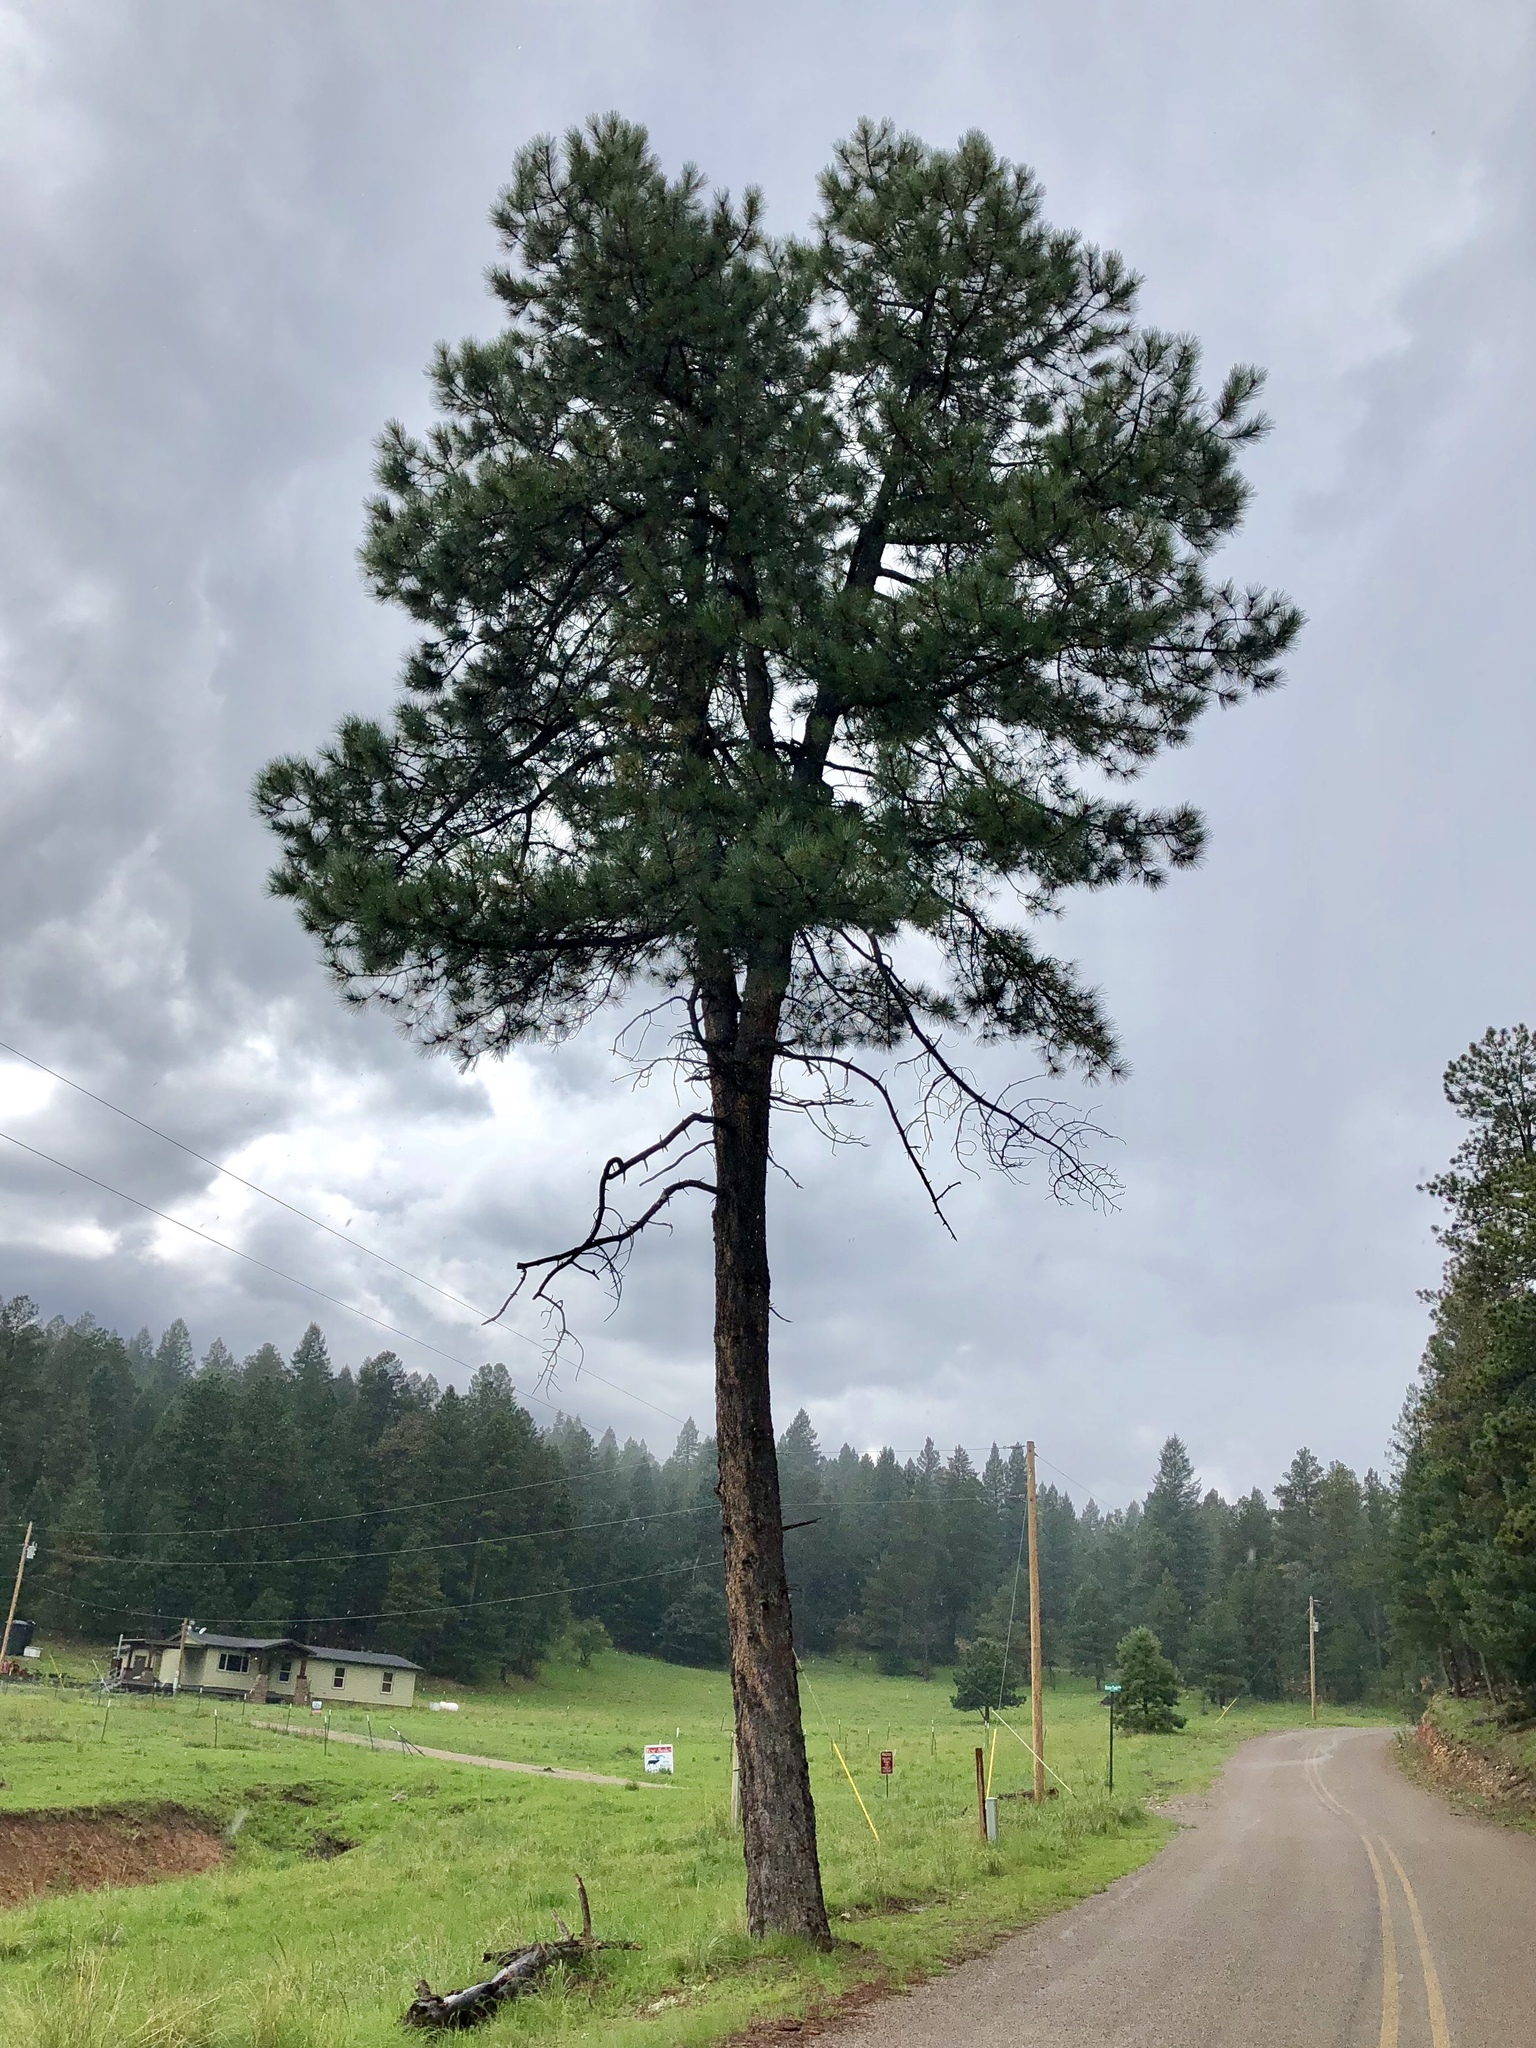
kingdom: Plantae
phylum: Tracheophyta
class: Pinopsida
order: Pinales
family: Pinaceae
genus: Pinus
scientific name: Pinus ponderosa
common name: Western yellow-pine
